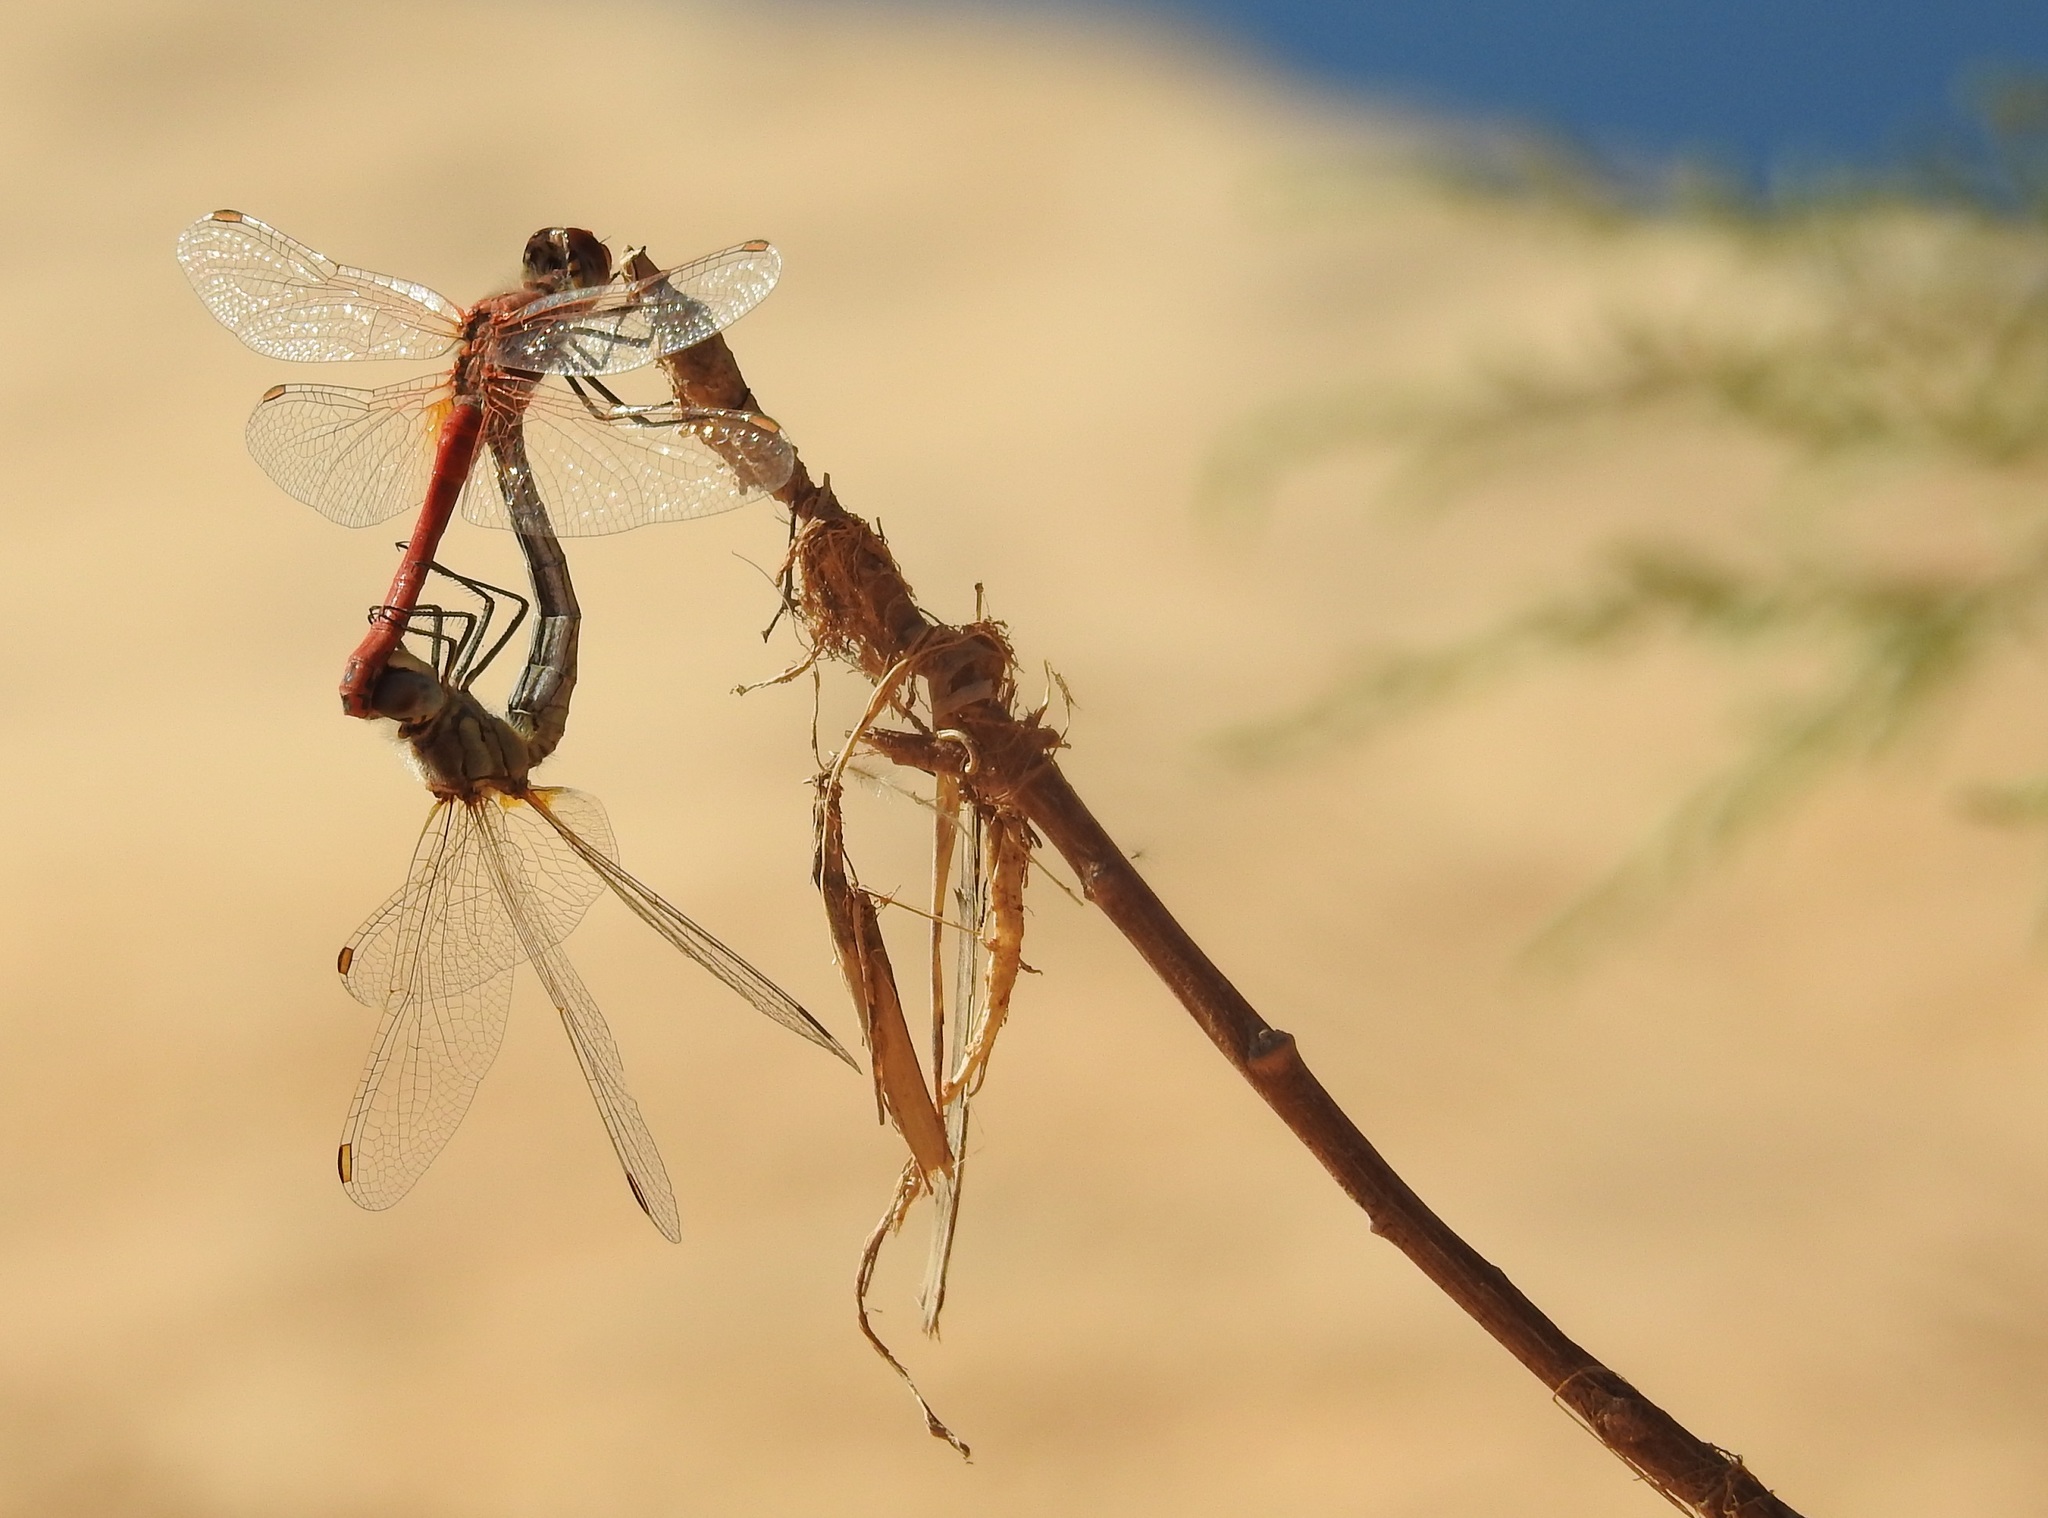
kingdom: Animalia
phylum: Arthropoda
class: Insecta
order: Odonata
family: Libellulidae
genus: Sympetrum
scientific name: Sympetrum fonscolombii
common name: Red-veined darter
